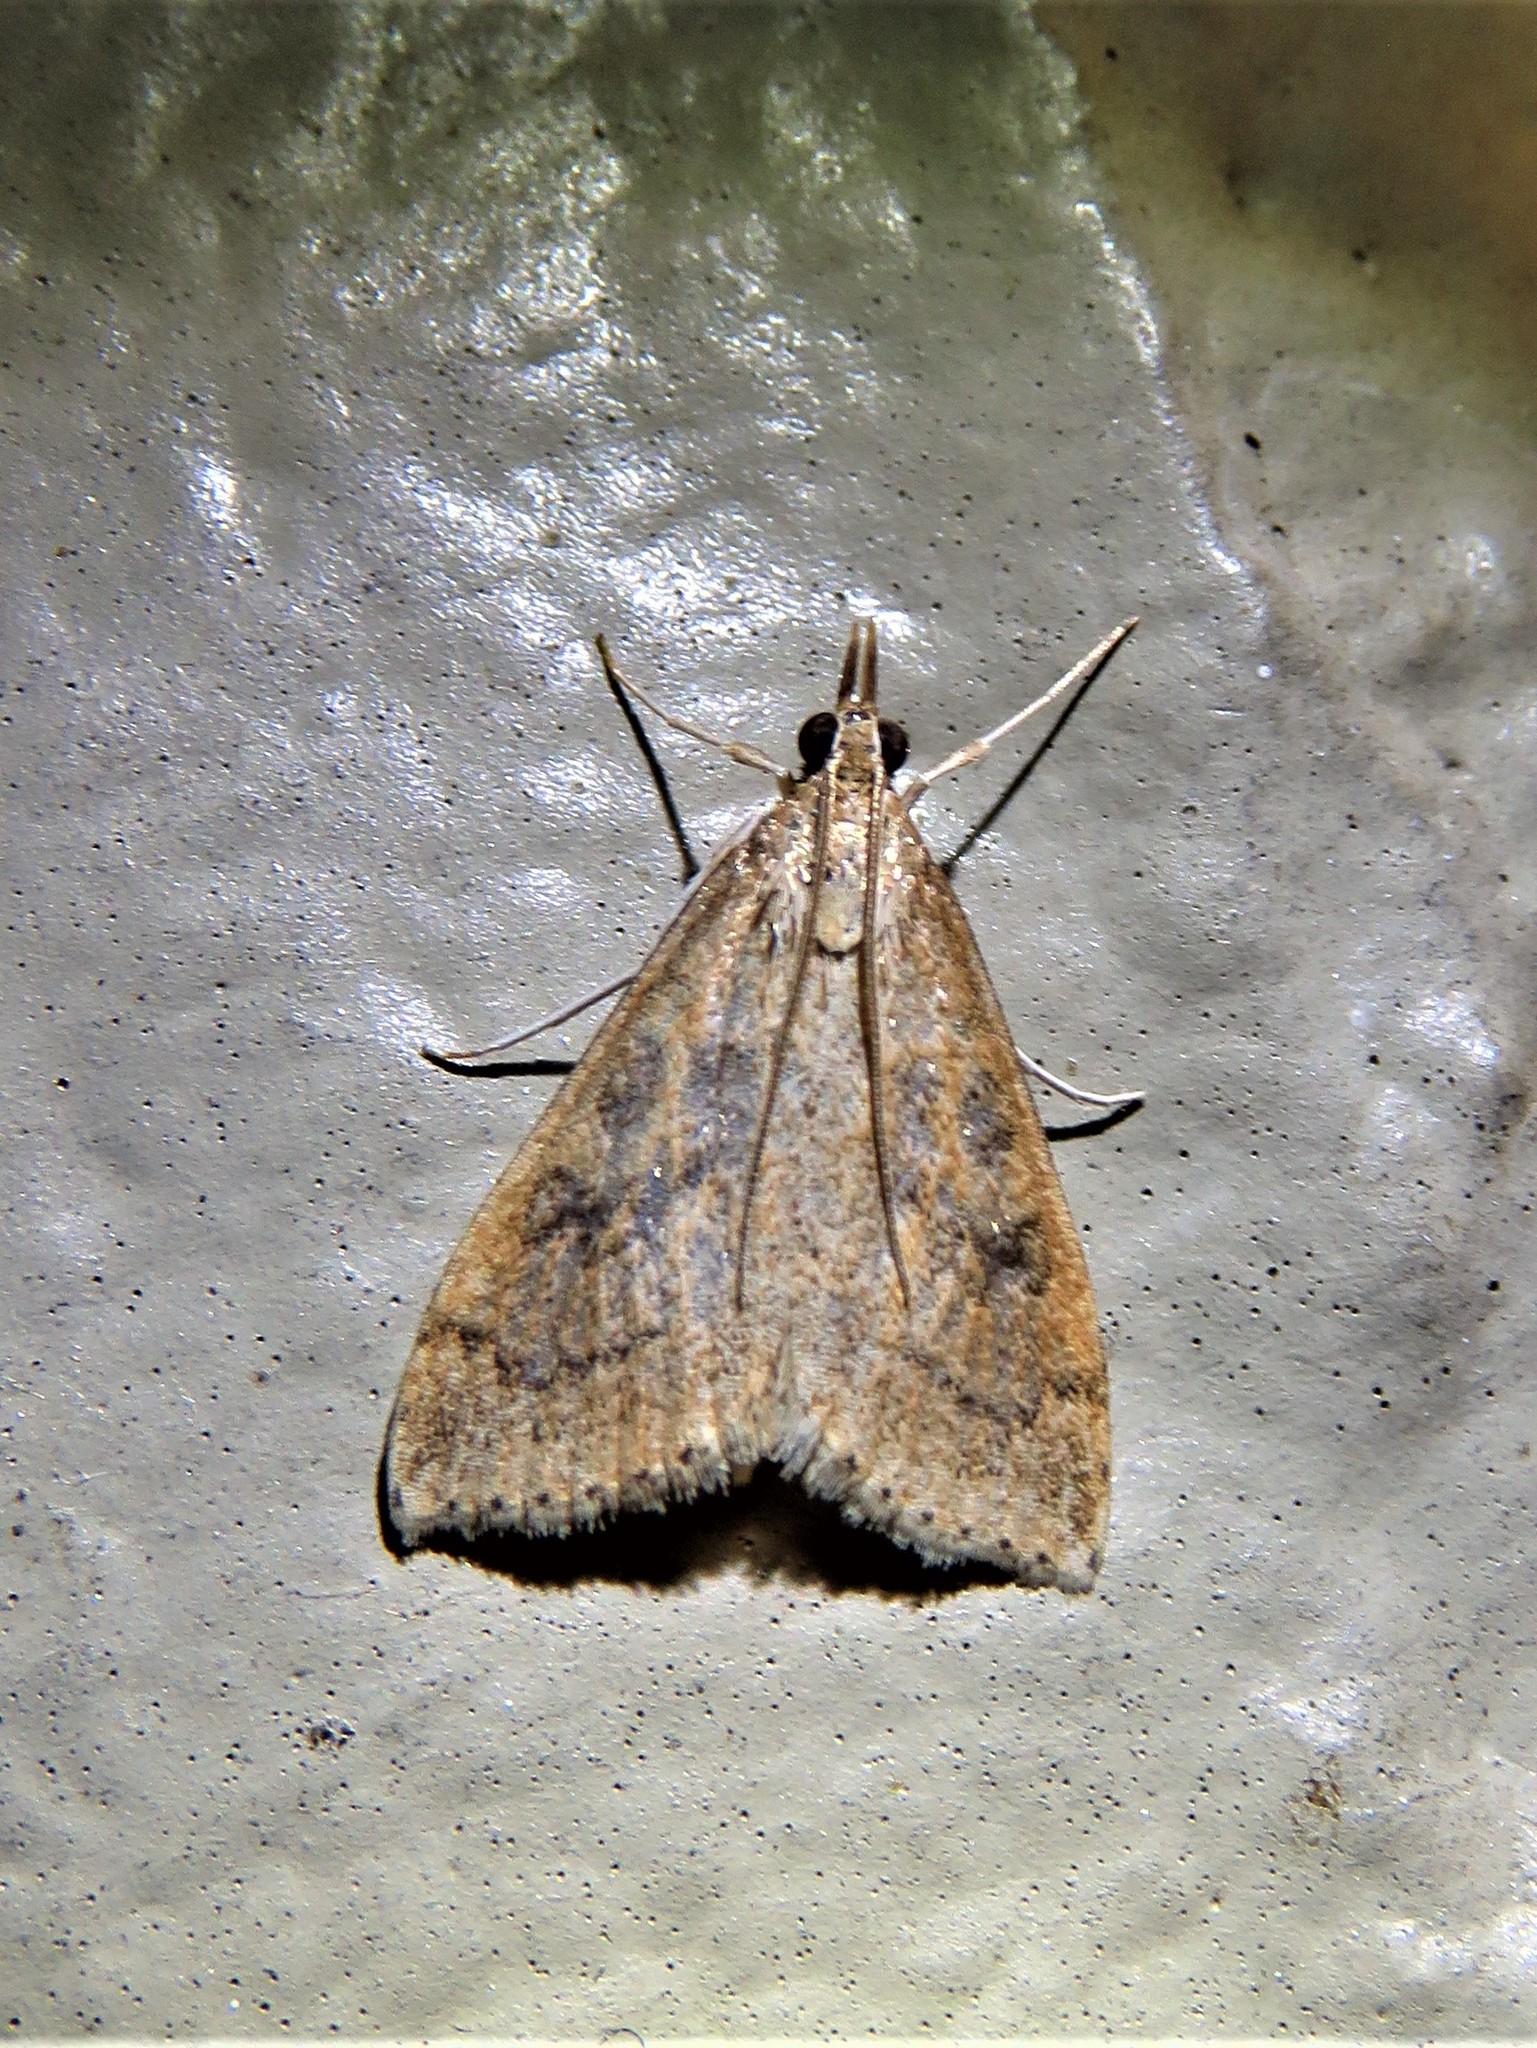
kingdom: Animalia
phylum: Arthropoda
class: Insecta
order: Lepidoptera
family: Crambidae
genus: Udea
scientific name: Udea rubigalis
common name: Celery leaftier moth
